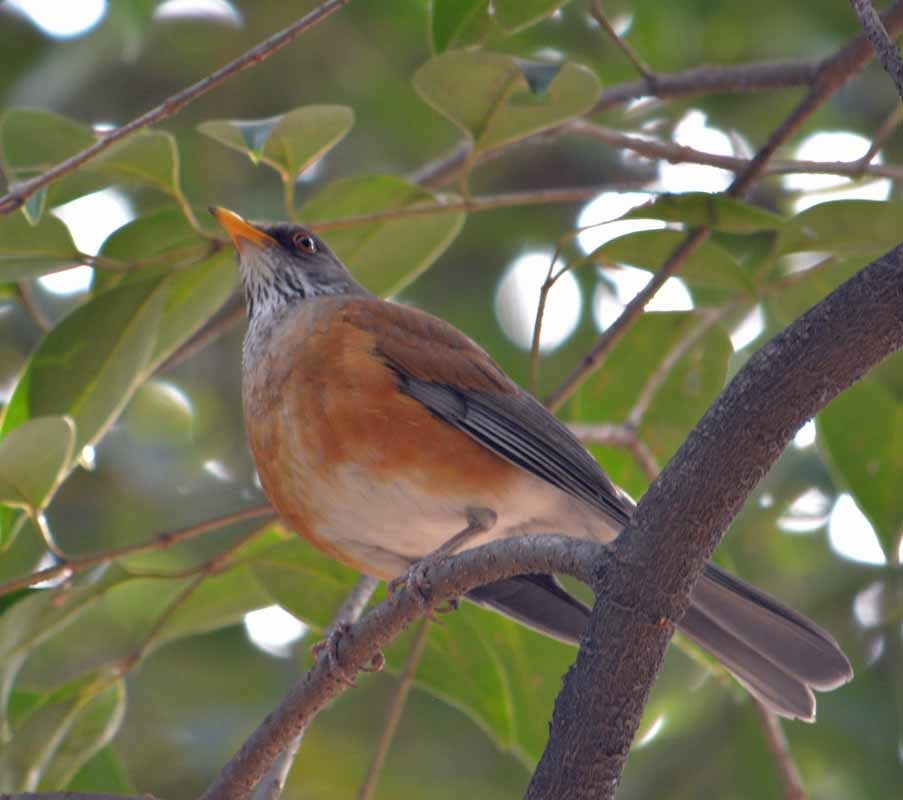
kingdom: Animalia
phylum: Chordata
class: Aves
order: Passeriformes
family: Turdidae
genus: Turdus
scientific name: Turdus rufopalliatus
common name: Rufous-backed robin
